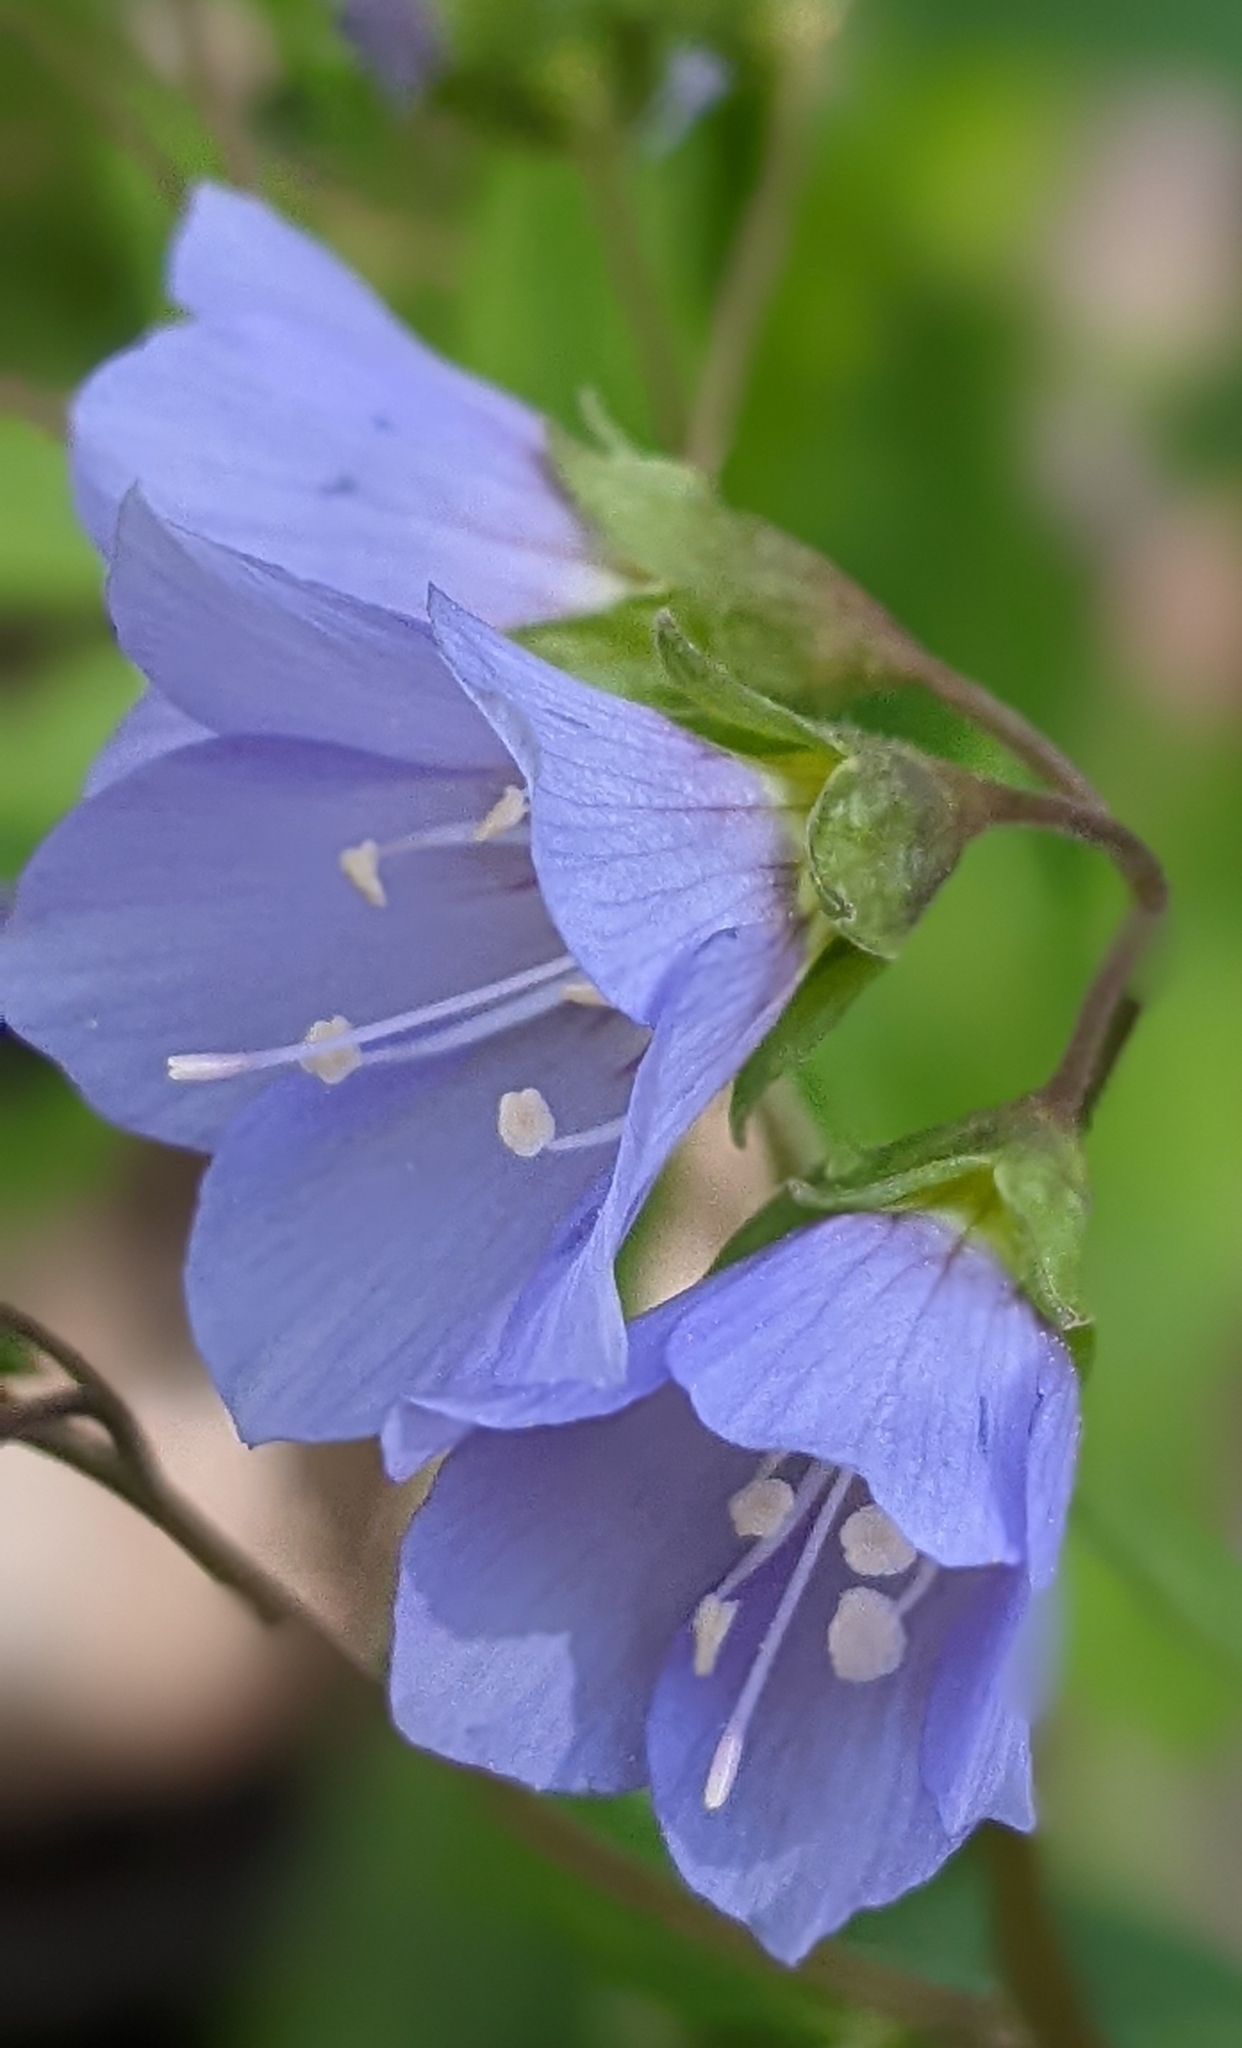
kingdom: Plantae
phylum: Tracheophyta
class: Magnoliopsida
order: Ericales
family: Polemoniaceae
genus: Polemonium
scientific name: Polemonium reptans
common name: Creeping jacob's-ladder
